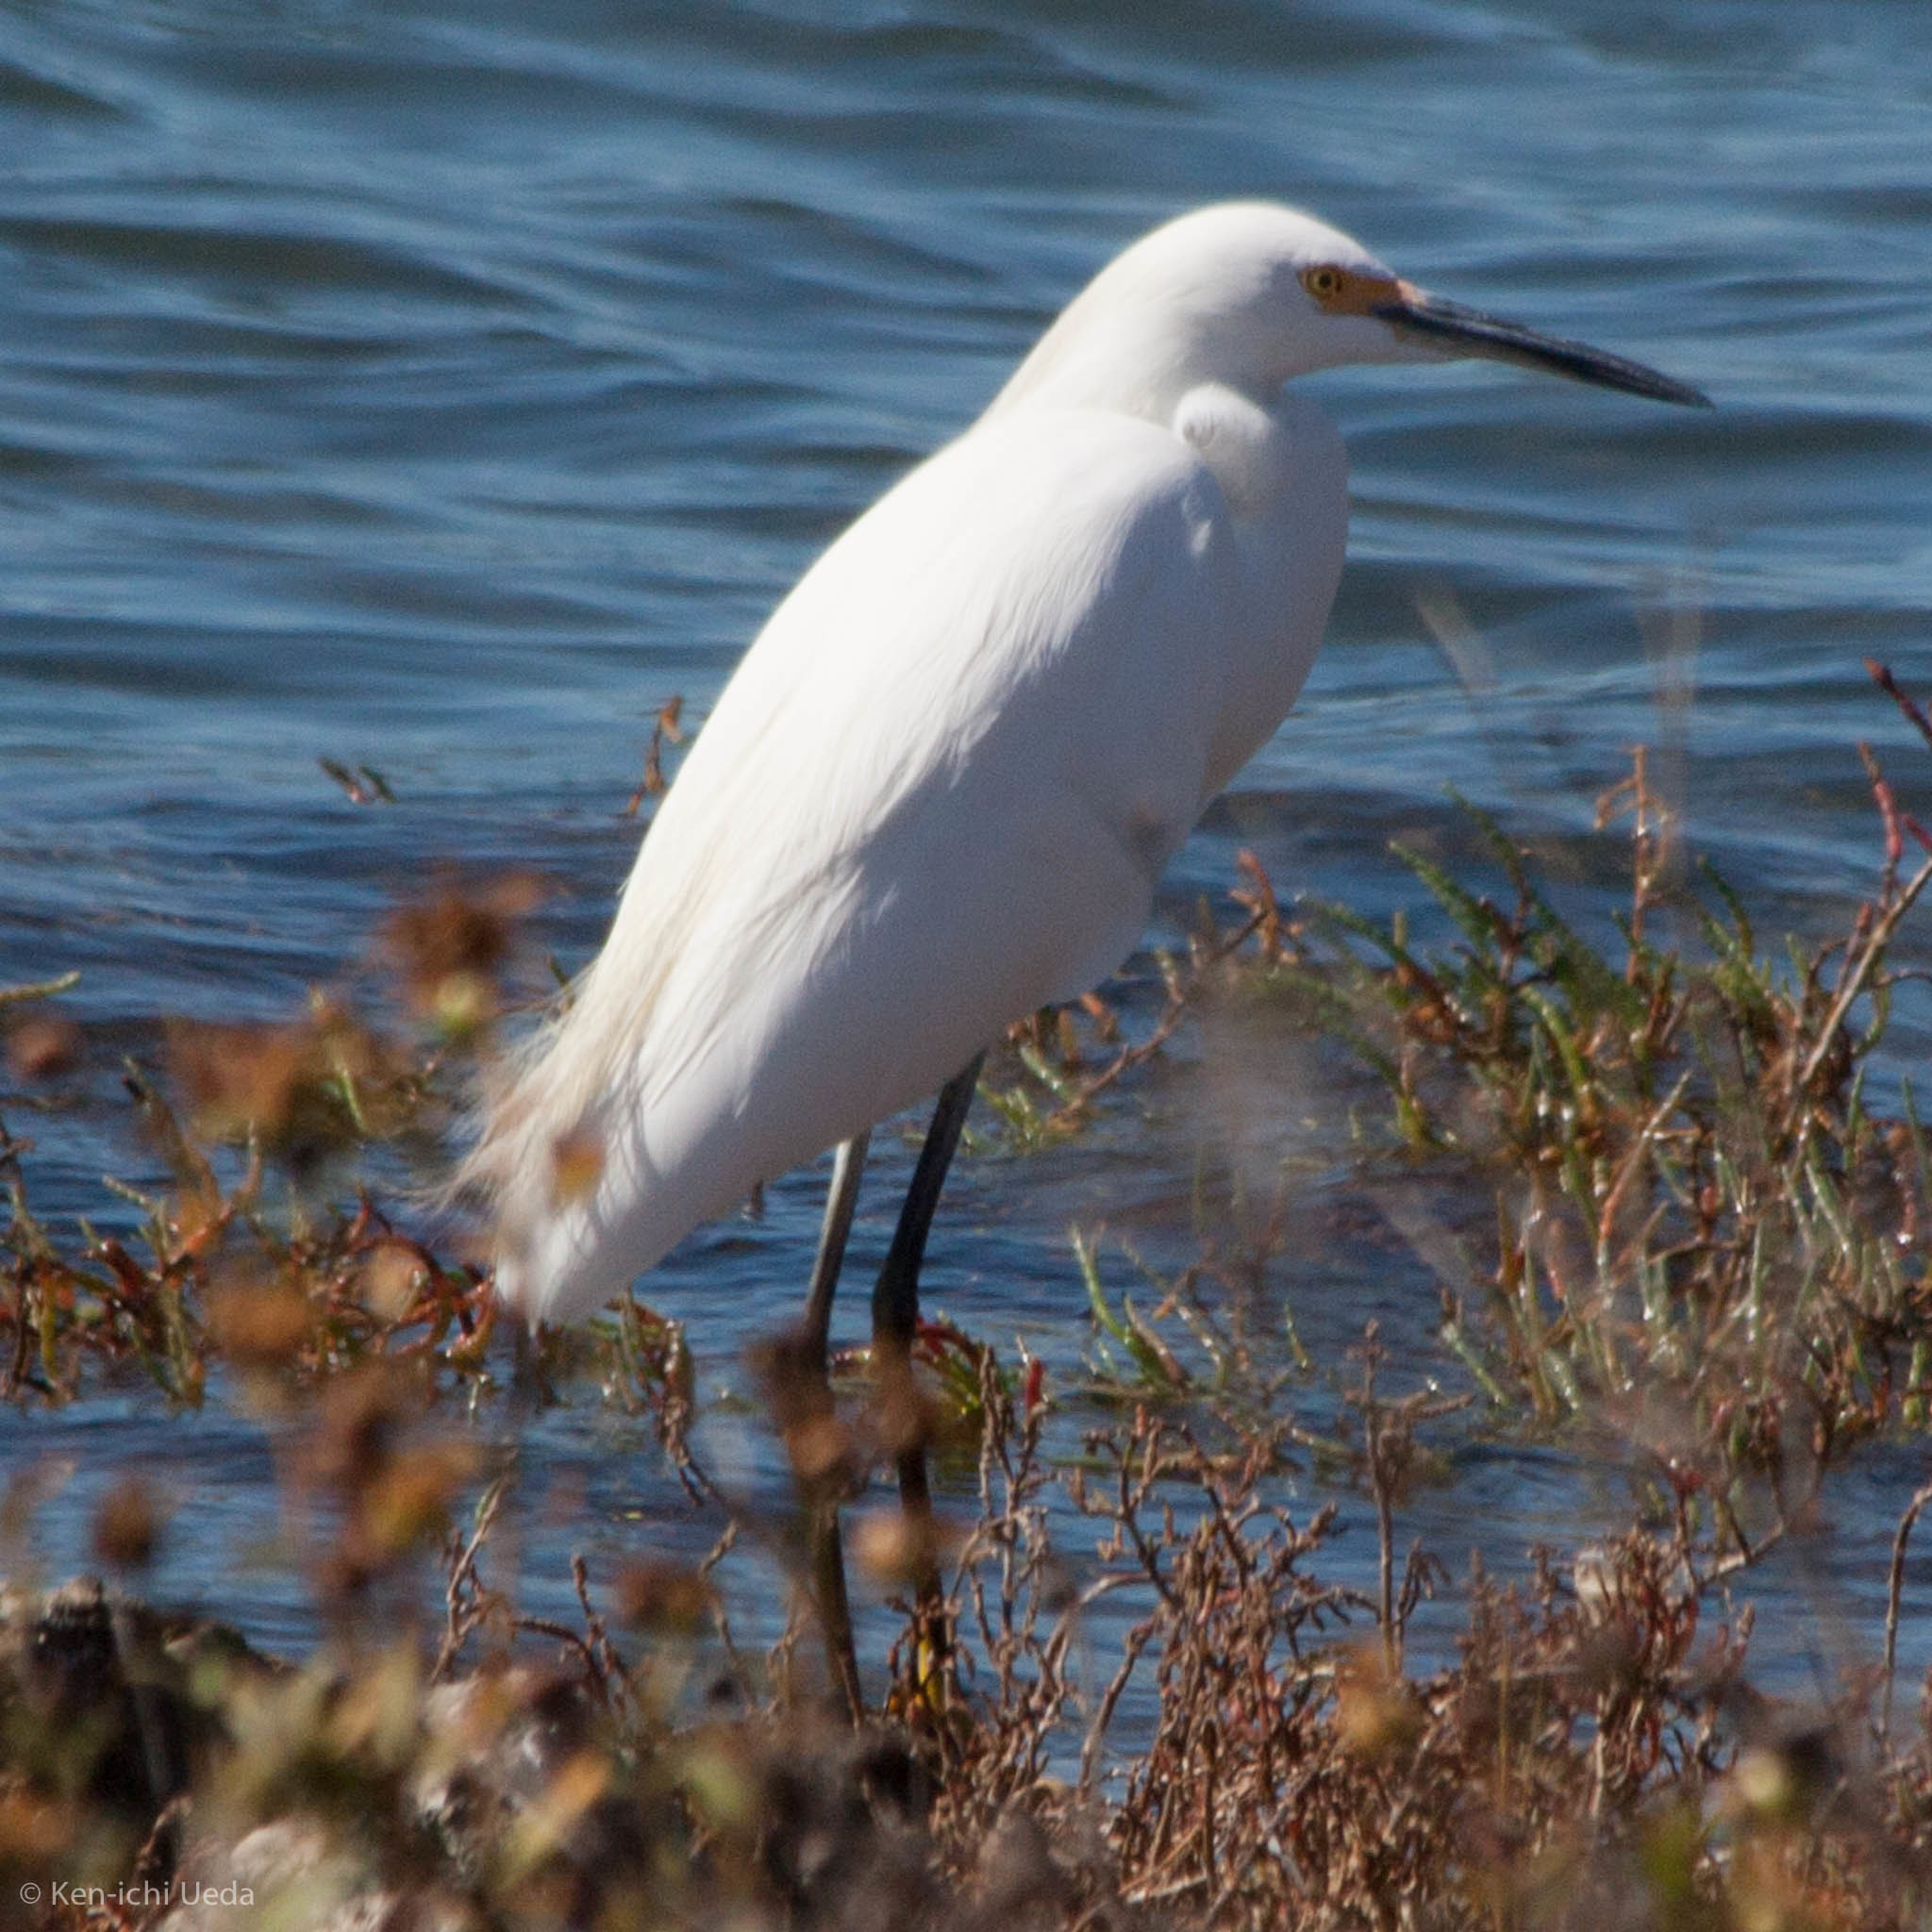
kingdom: Animalia
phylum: Chordata
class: Aves
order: Pelecaniformes
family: Ardeidae
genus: Egretta
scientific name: Egretta thula
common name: Snowy egret
